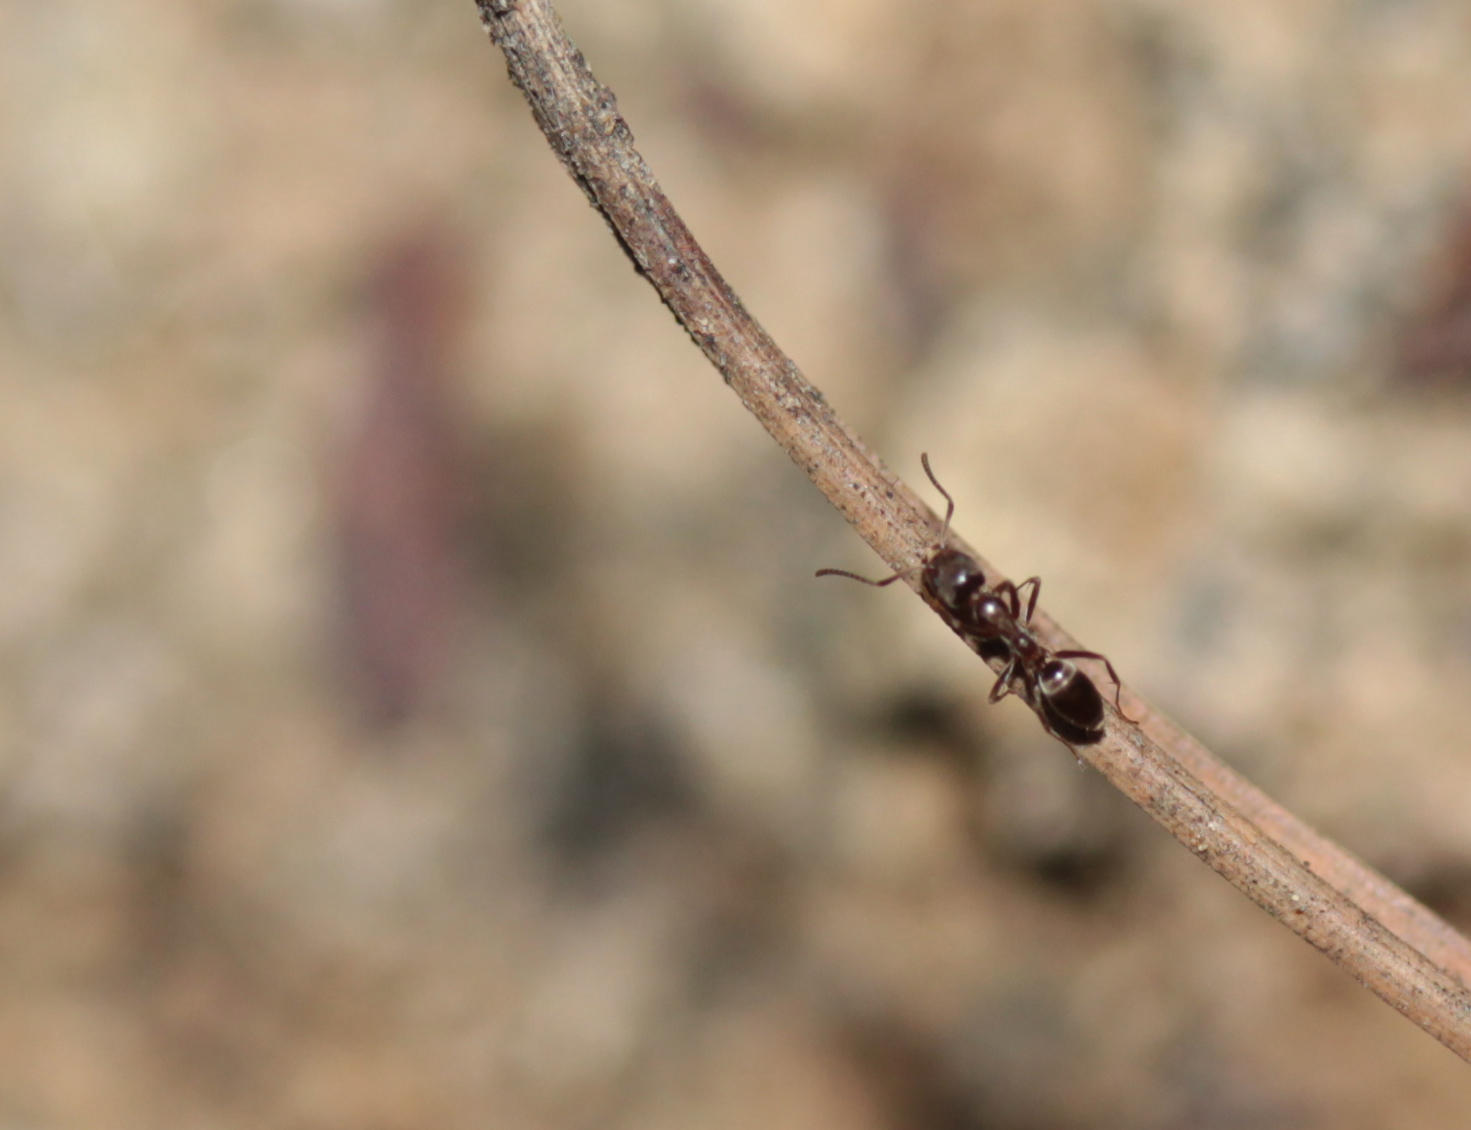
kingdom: Animalia
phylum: Arthropoda
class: Insecta
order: Hymenoptera
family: Formicidae
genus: Linepithema
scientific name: Linepithema humile
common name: Argentine ant
